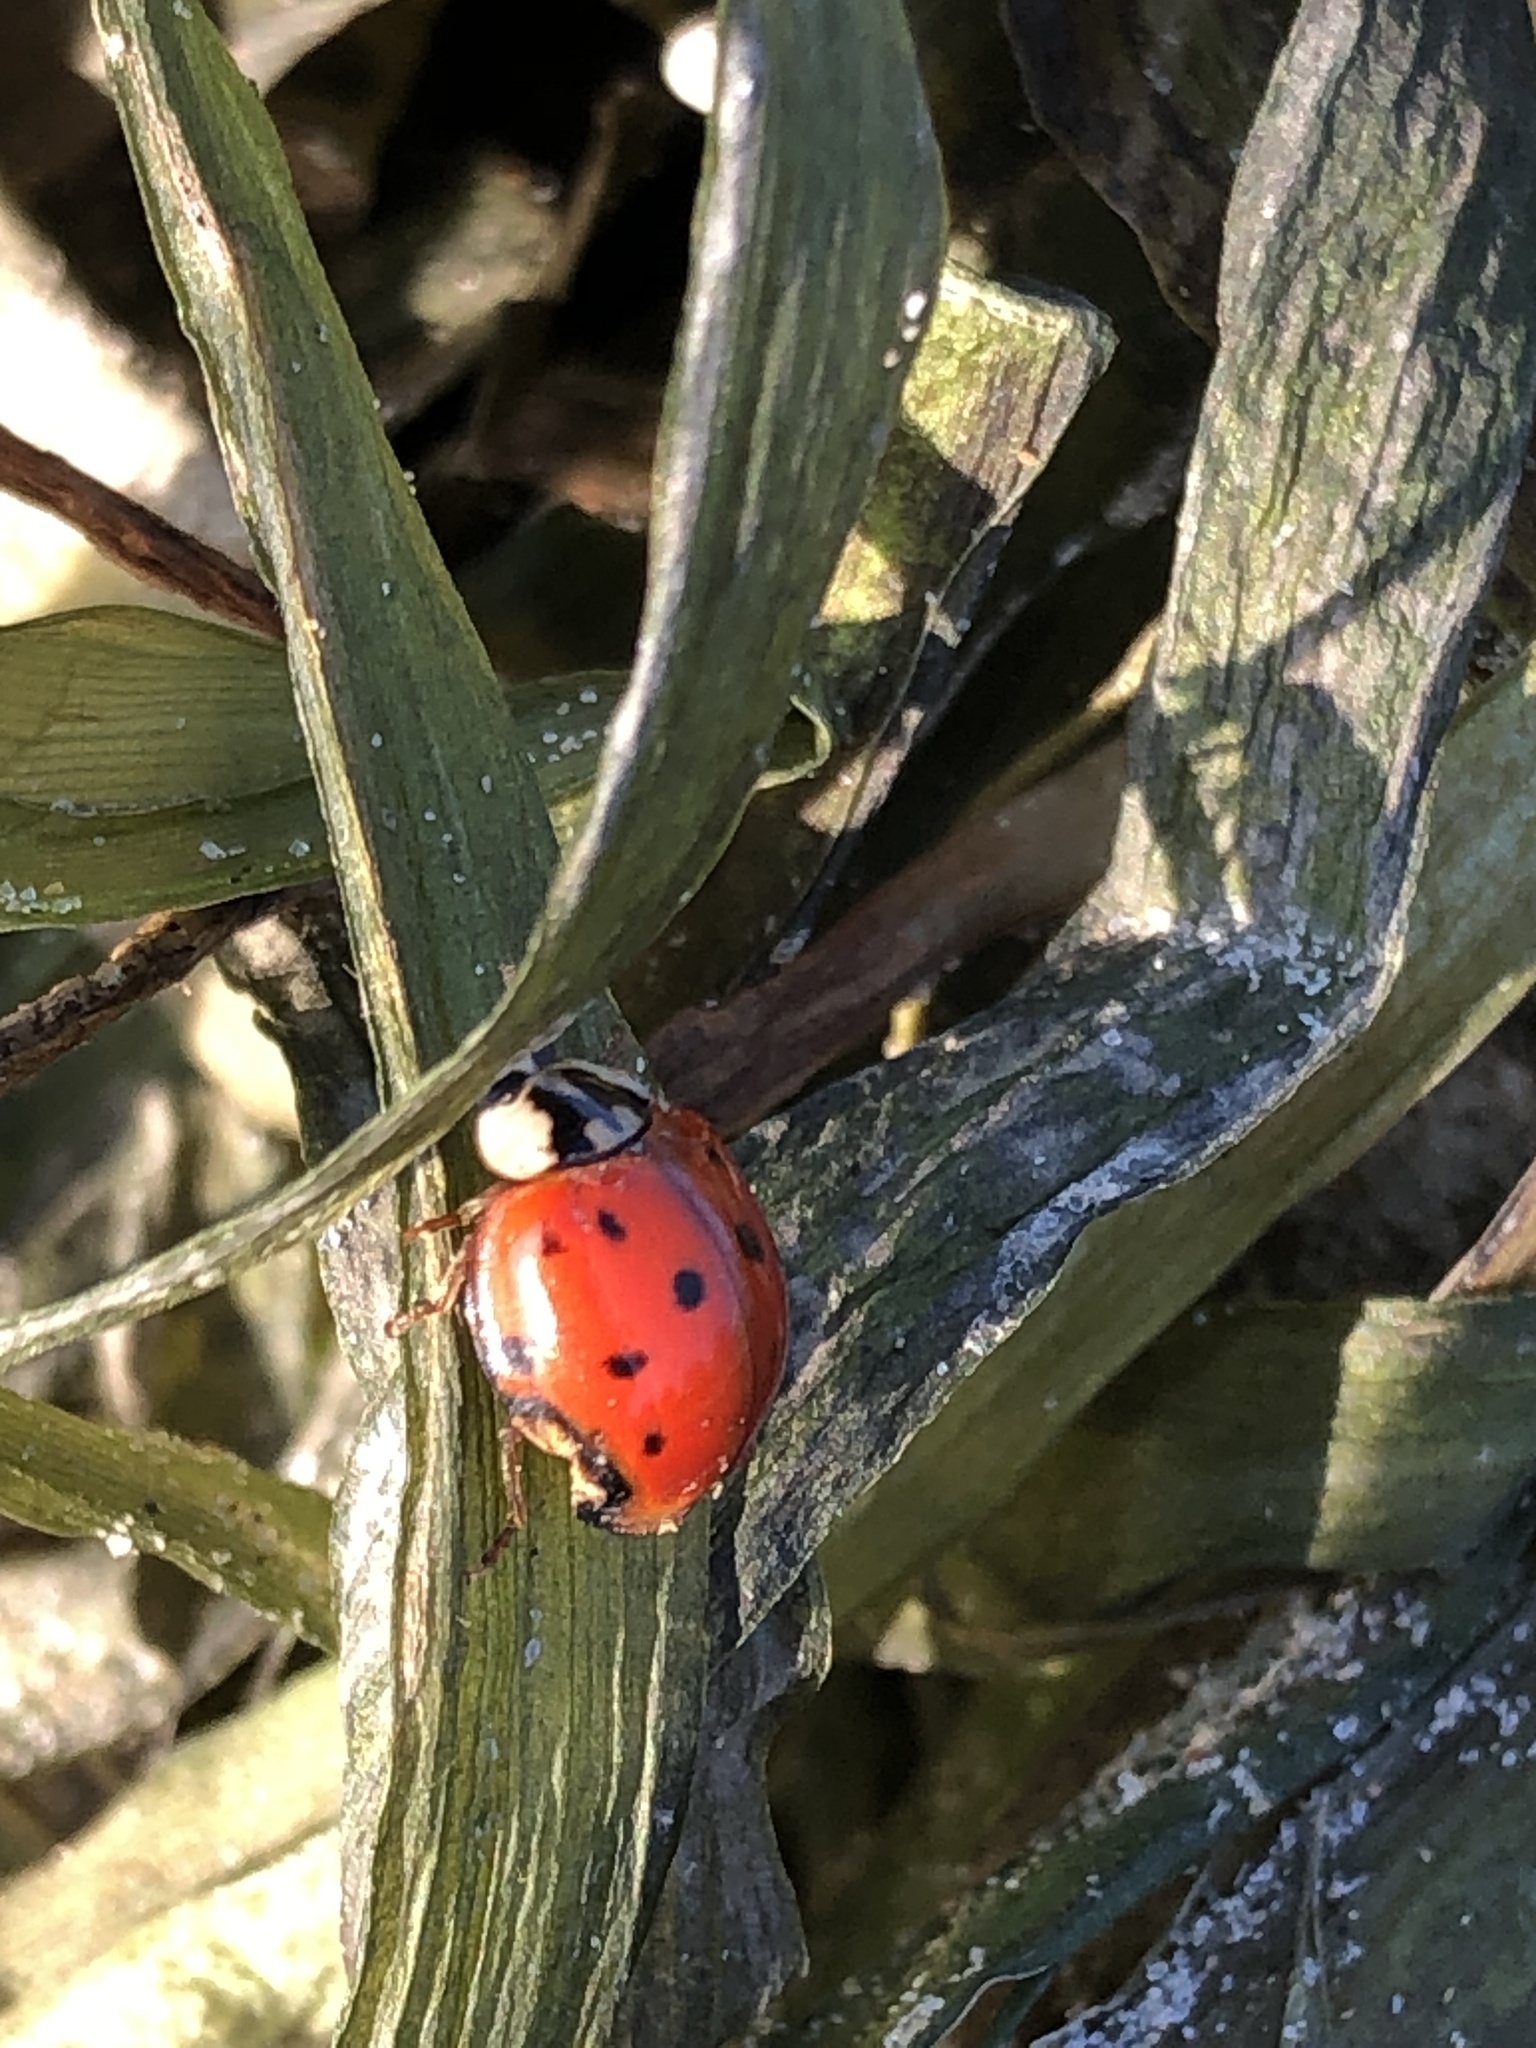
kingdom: Animalia
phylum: Arthropoda
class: Insecta
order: Coleoptera
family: Coccinellidae
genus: Harmonia
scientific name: Harmonia axyridis
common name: Harlequin ladybird
